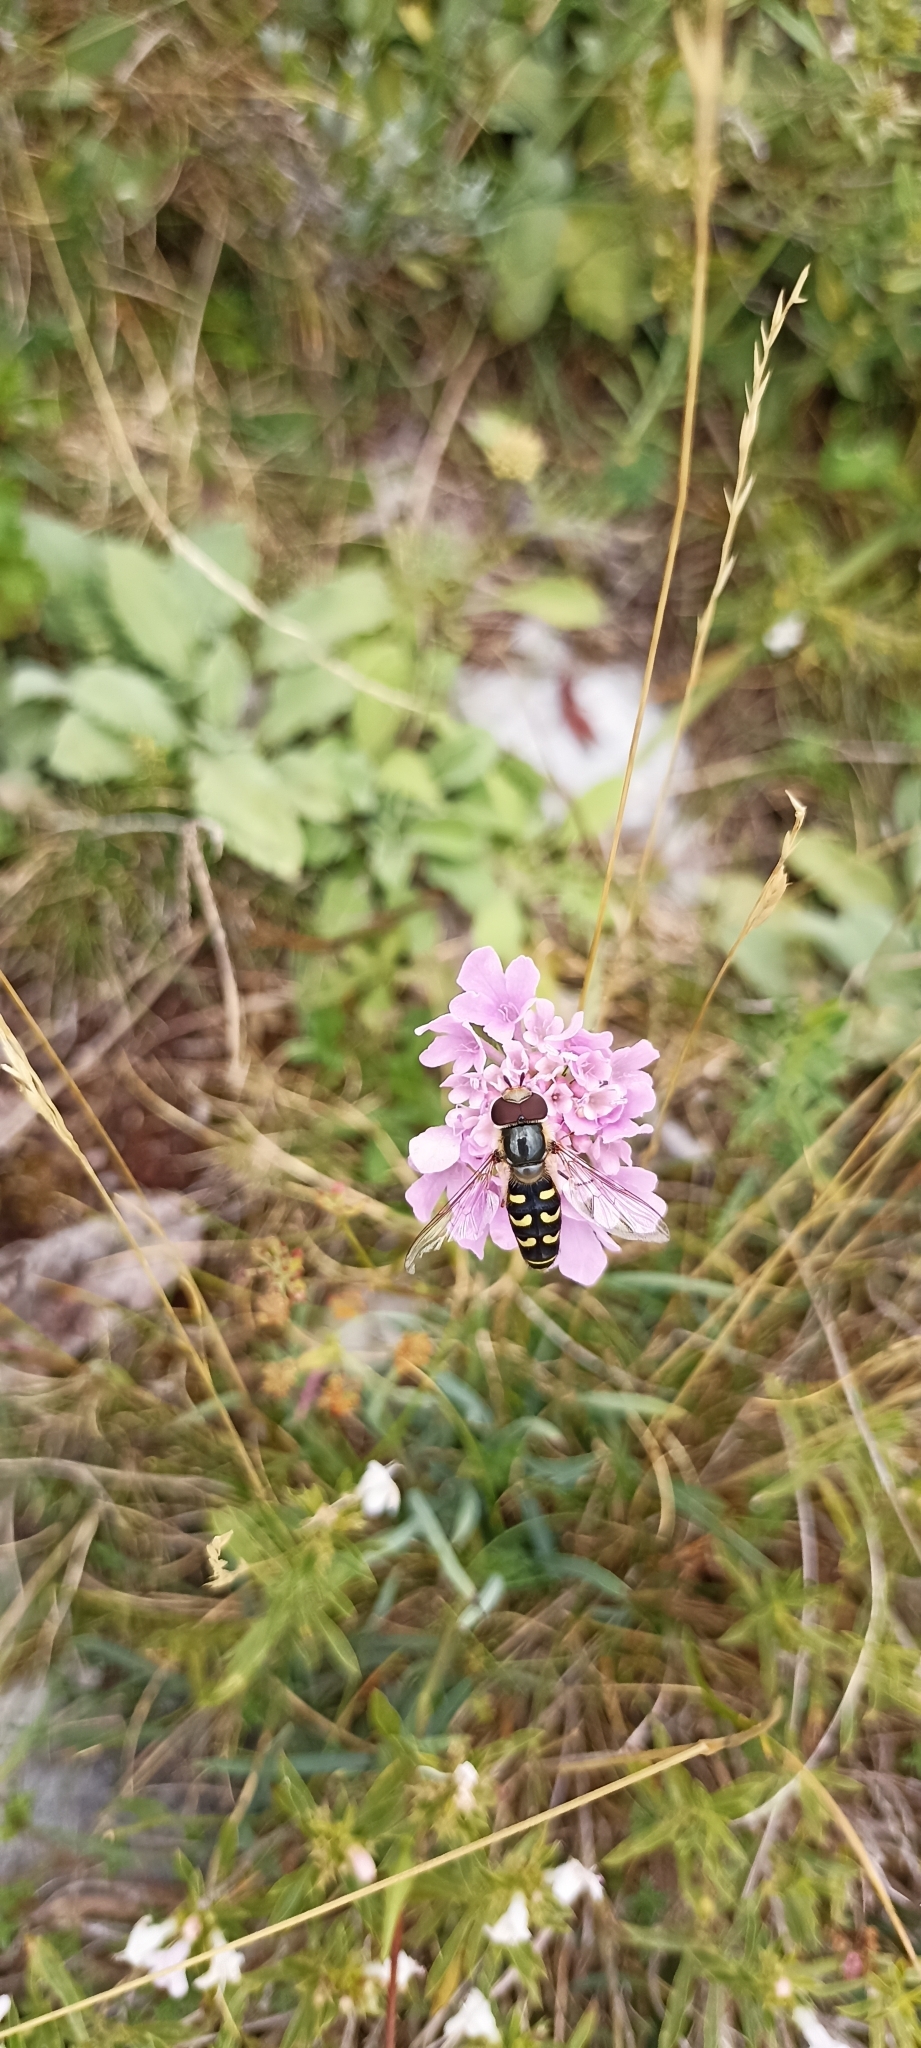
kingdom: Animalia
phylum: Arthropoda
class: Insecta
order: Diptera
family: Syrphidae
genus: Scaeva
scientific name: Scaeva selenitica
